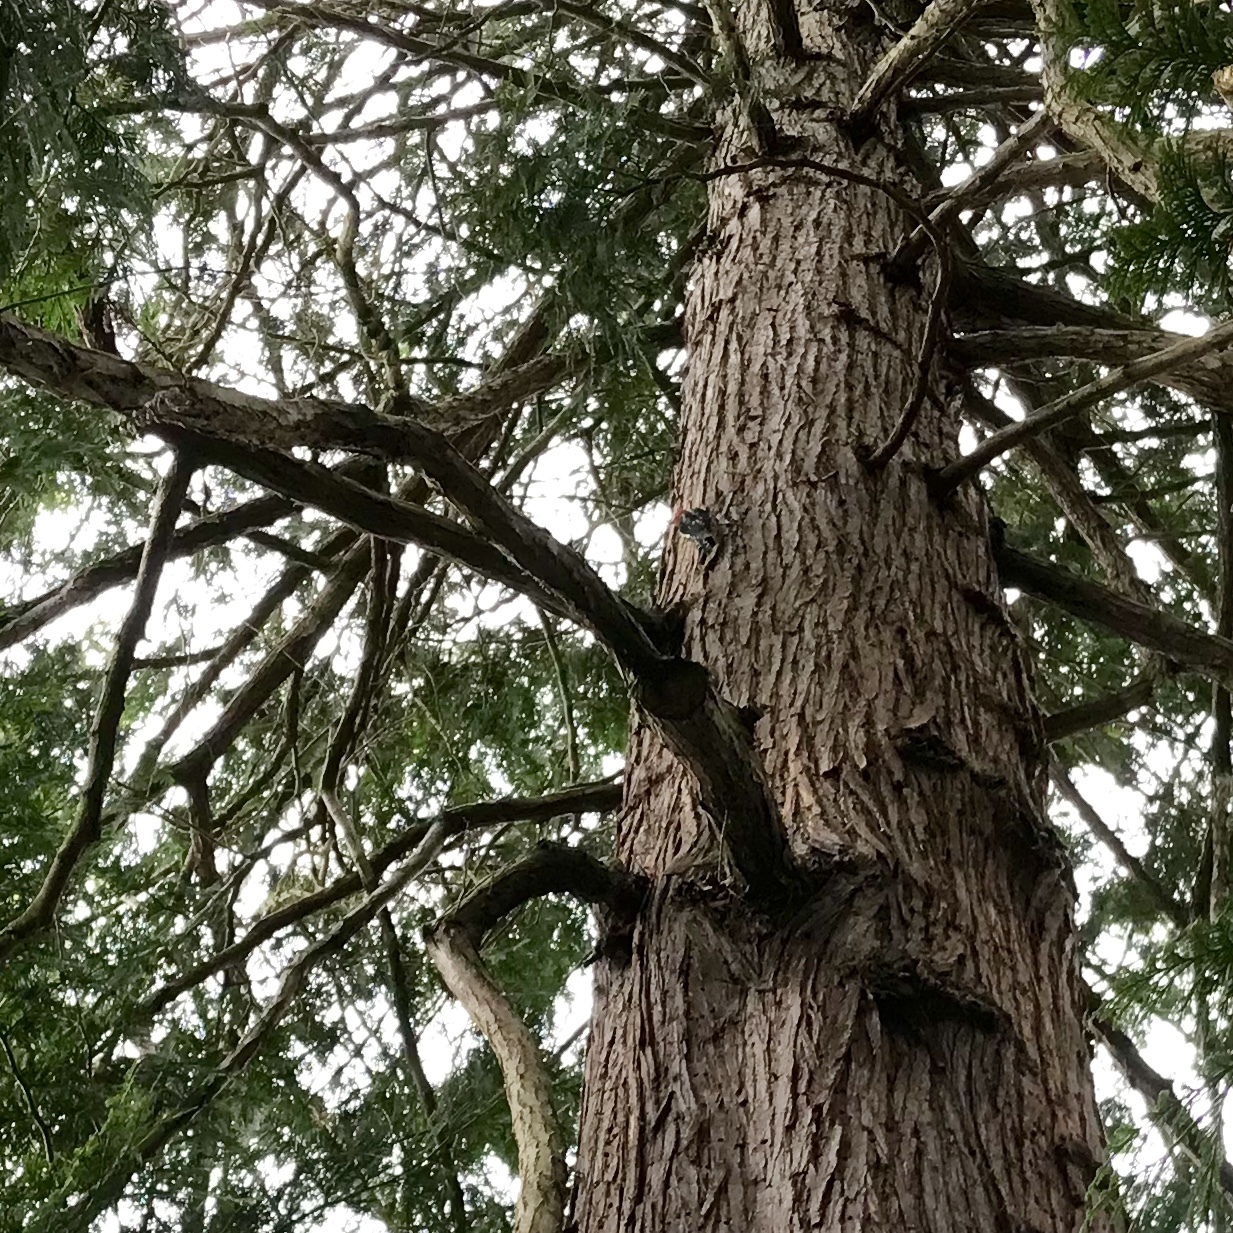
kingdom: Animalia
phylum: Chordata
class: Aves
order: Piciformes
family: Picidae
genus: Sphyrapicus
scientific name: Sphyrapicus ruber
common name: Red-breasted sapsucker
